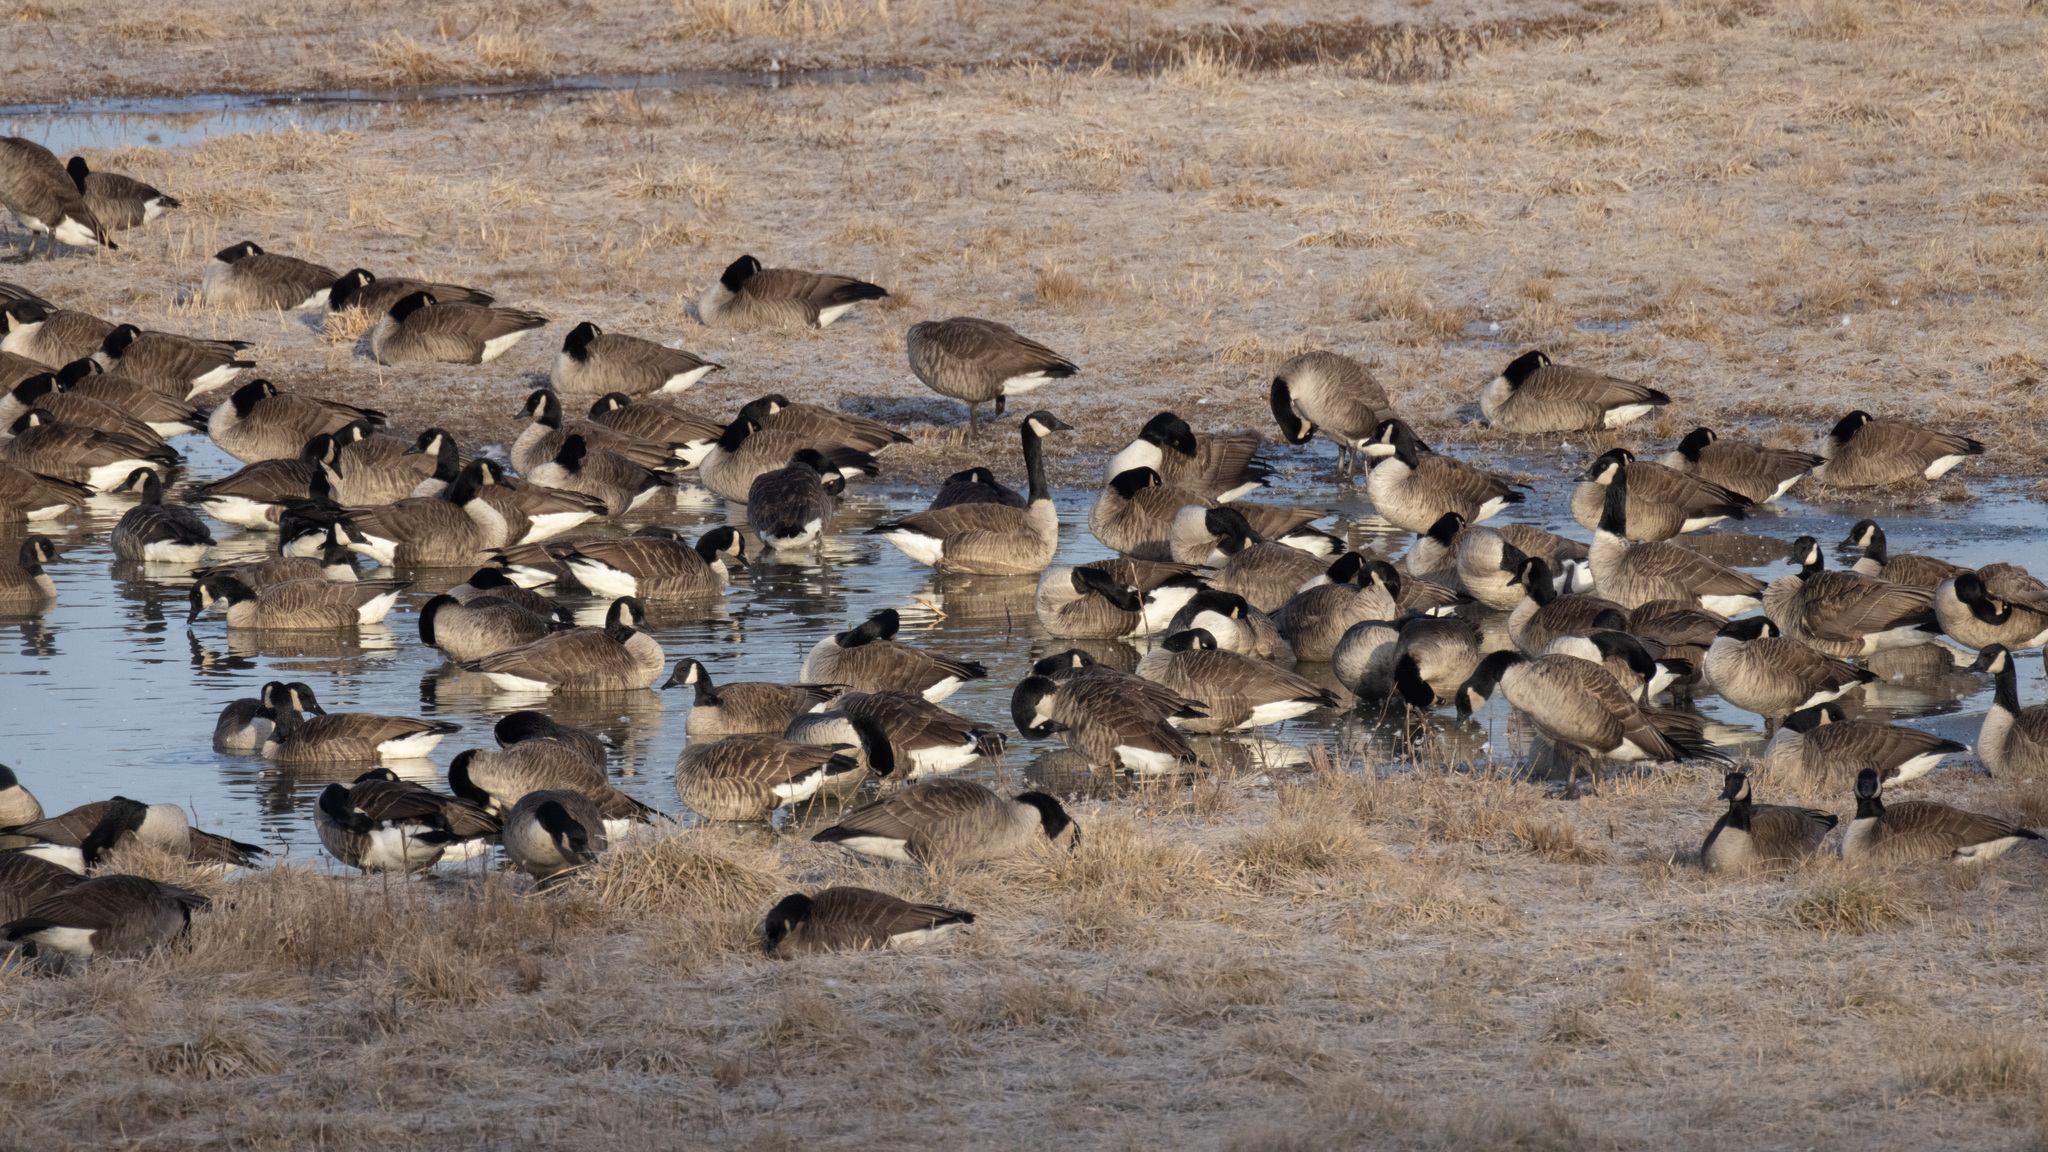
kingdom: Animalia
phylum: Chordata
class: Aves
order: Anseriformes
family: Anatidae
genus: Branta
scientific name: Branta canadensis
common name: Canada goose
